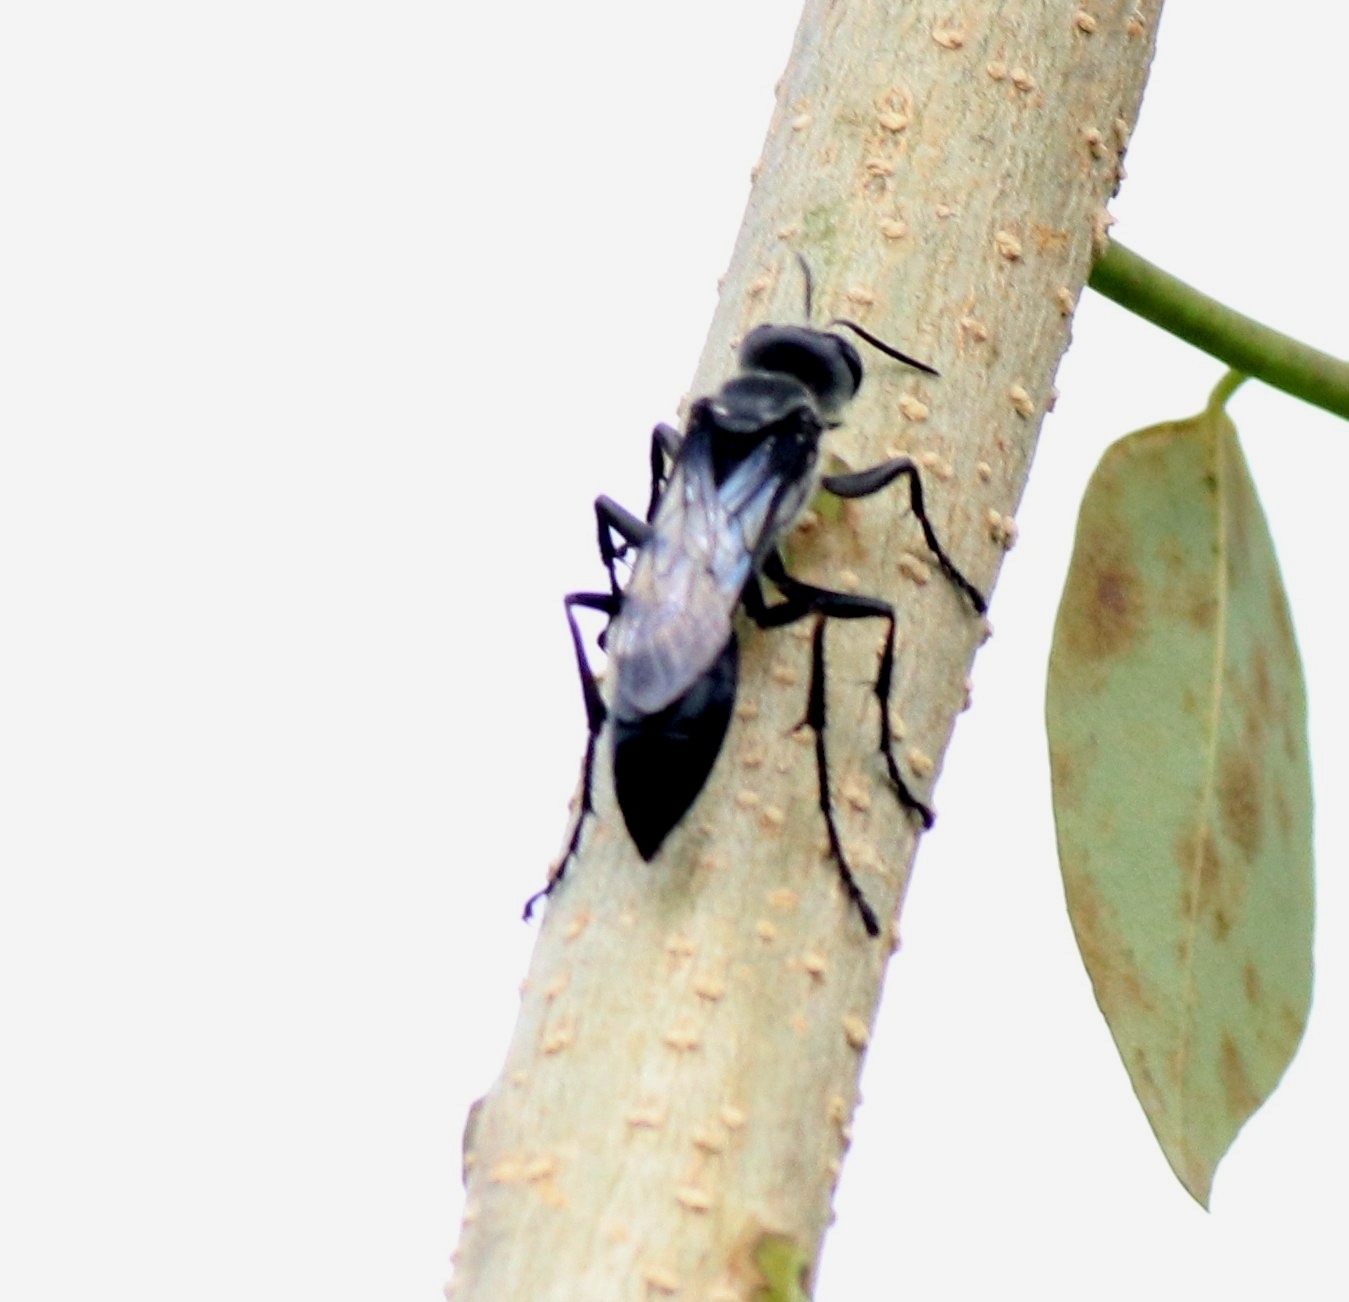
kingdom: Animalia
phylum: Arthropoda
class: Insecta
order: Hymenoptera
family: Sphecidae
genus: Sphex
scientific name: Sphex argentatus
